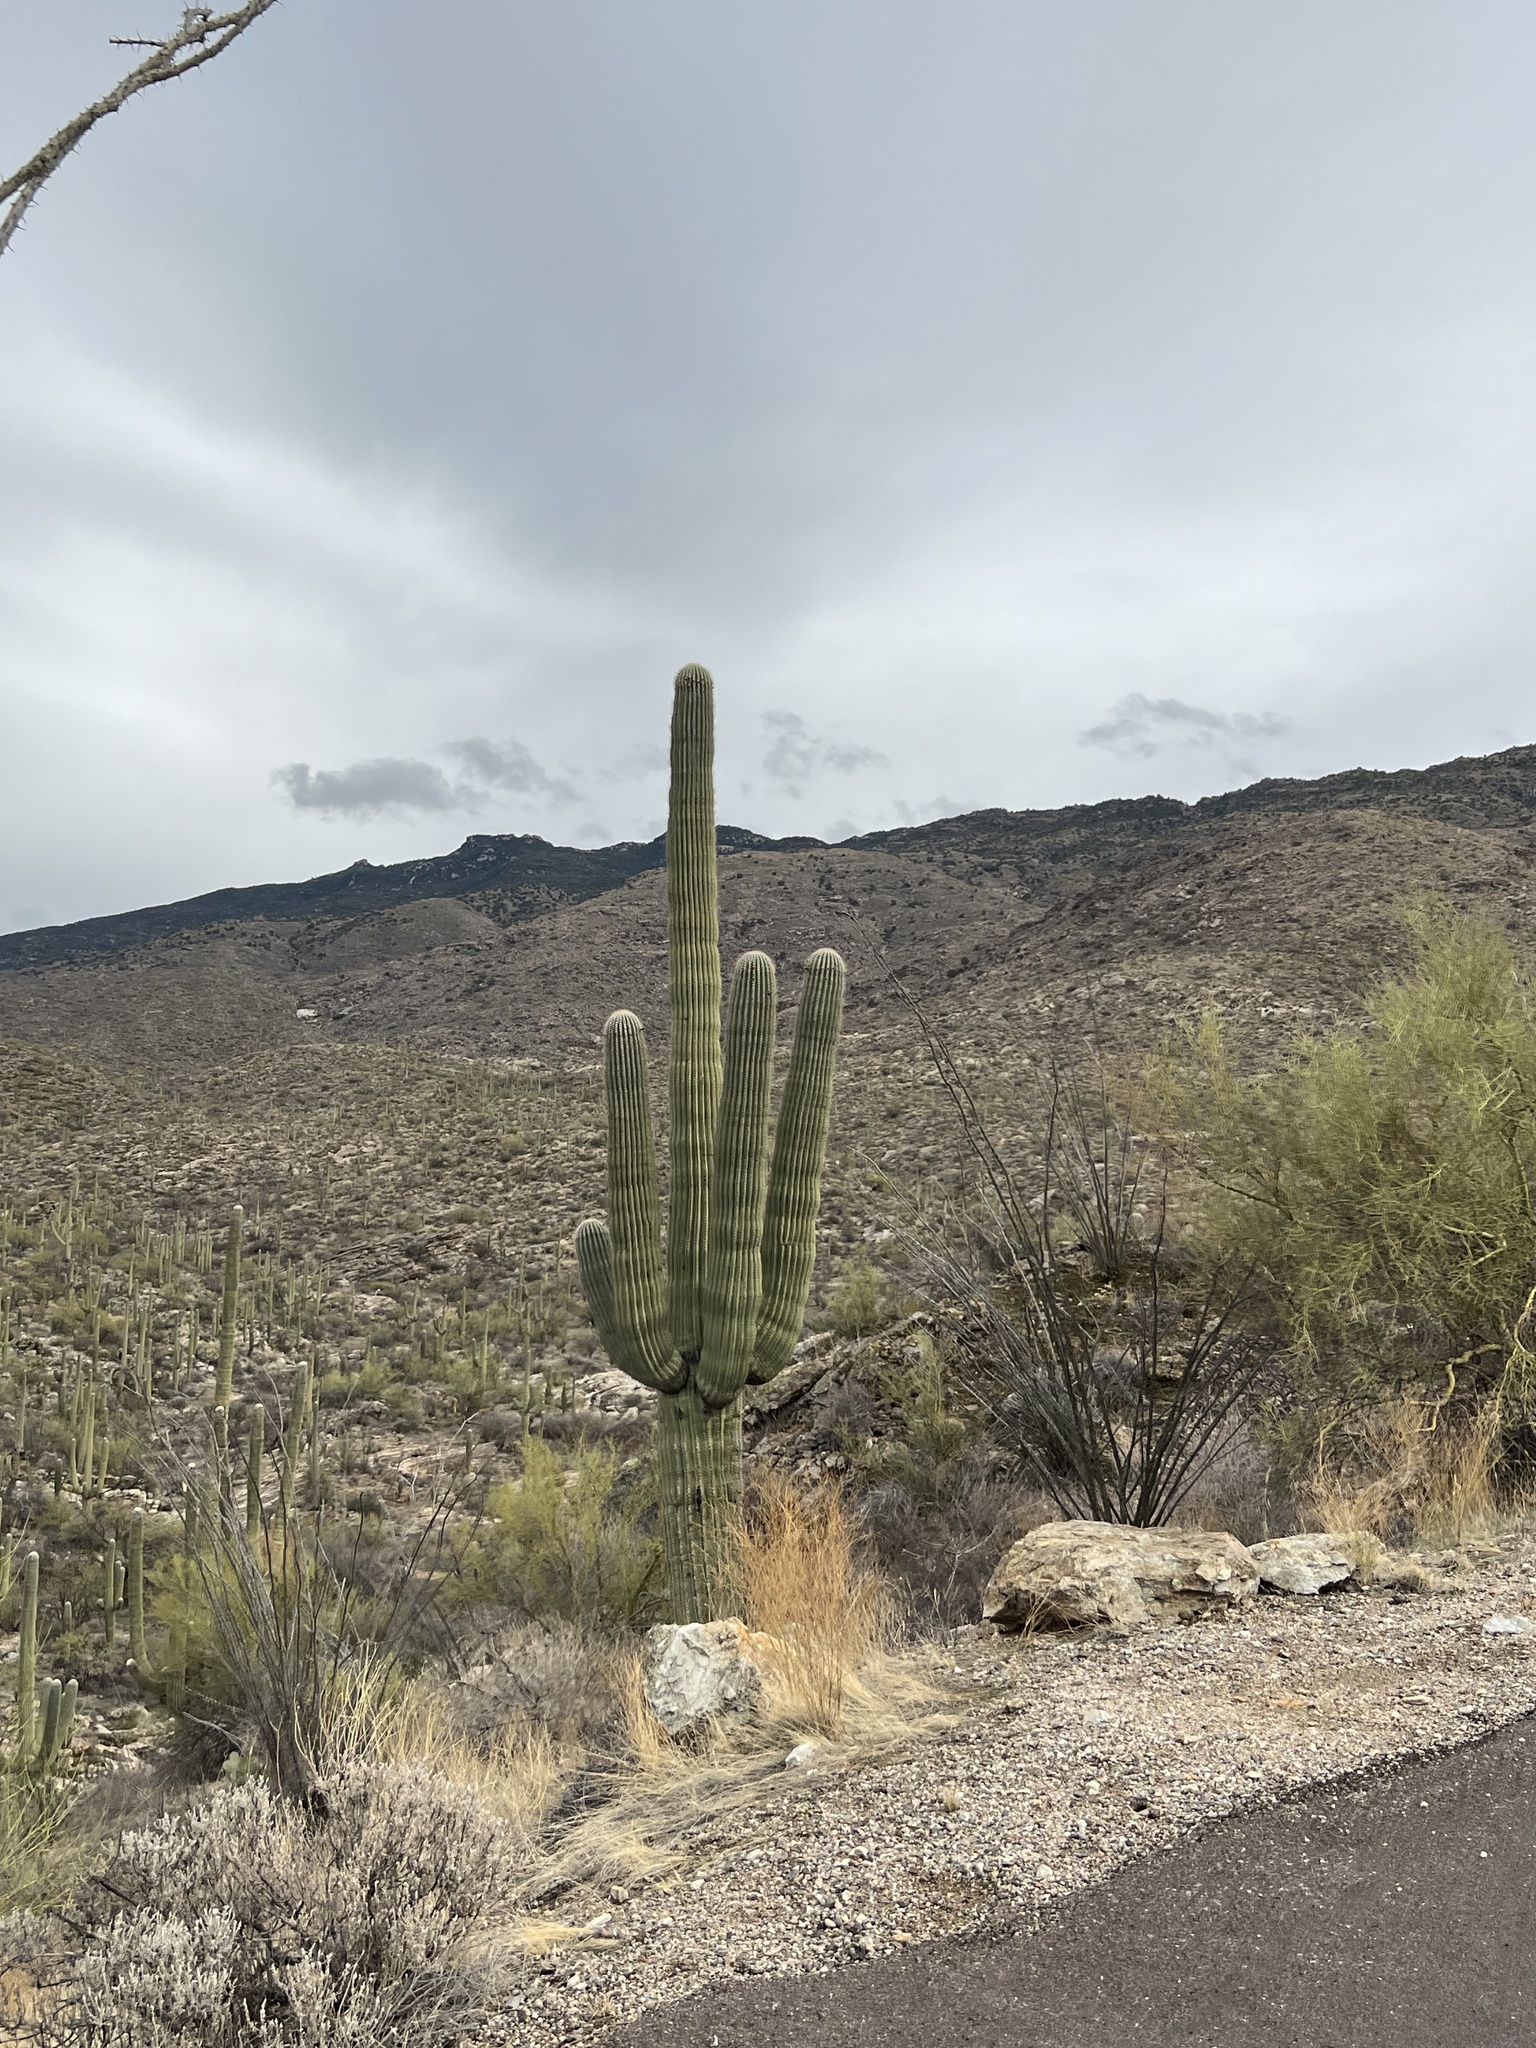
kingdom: Plantae
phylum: Tracheophyta
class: Magnoliopsida
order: Caryophyllales
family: Cactaceae
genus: Carnegiea
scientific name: Carnegiea gigantea
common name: Saguaro
